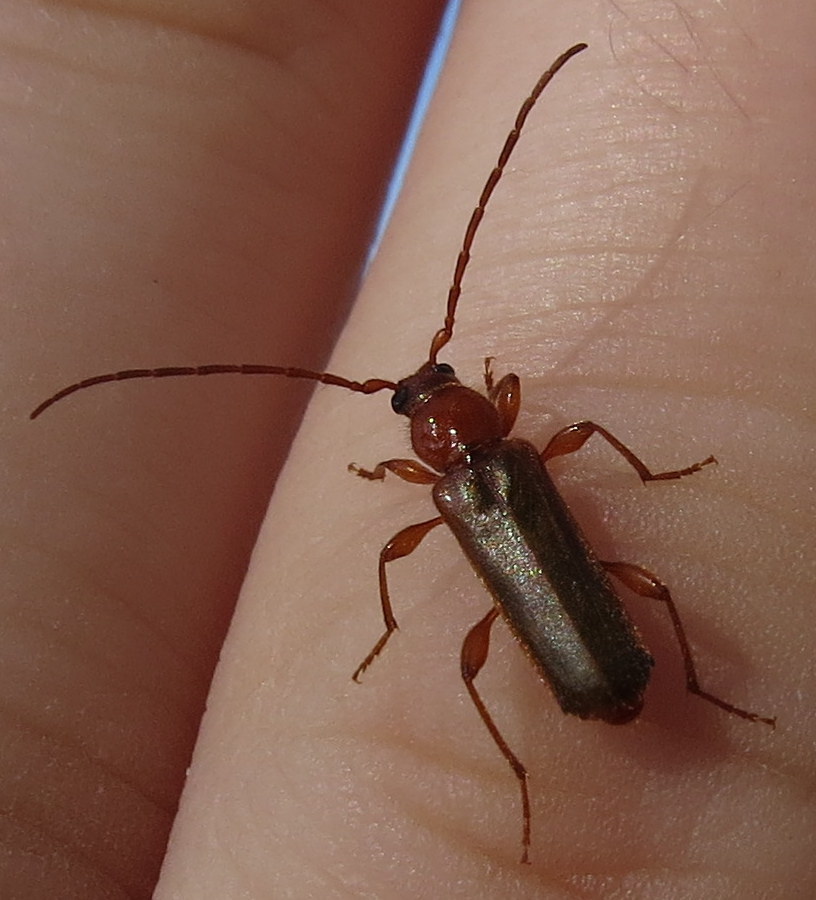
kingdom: Animalia
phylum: Arthropoda
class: Insecta
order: Coleoptera
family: Cerambycidae
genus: Phymatodes
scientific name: Phymatodes testaceus
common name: Long-horned beetle
